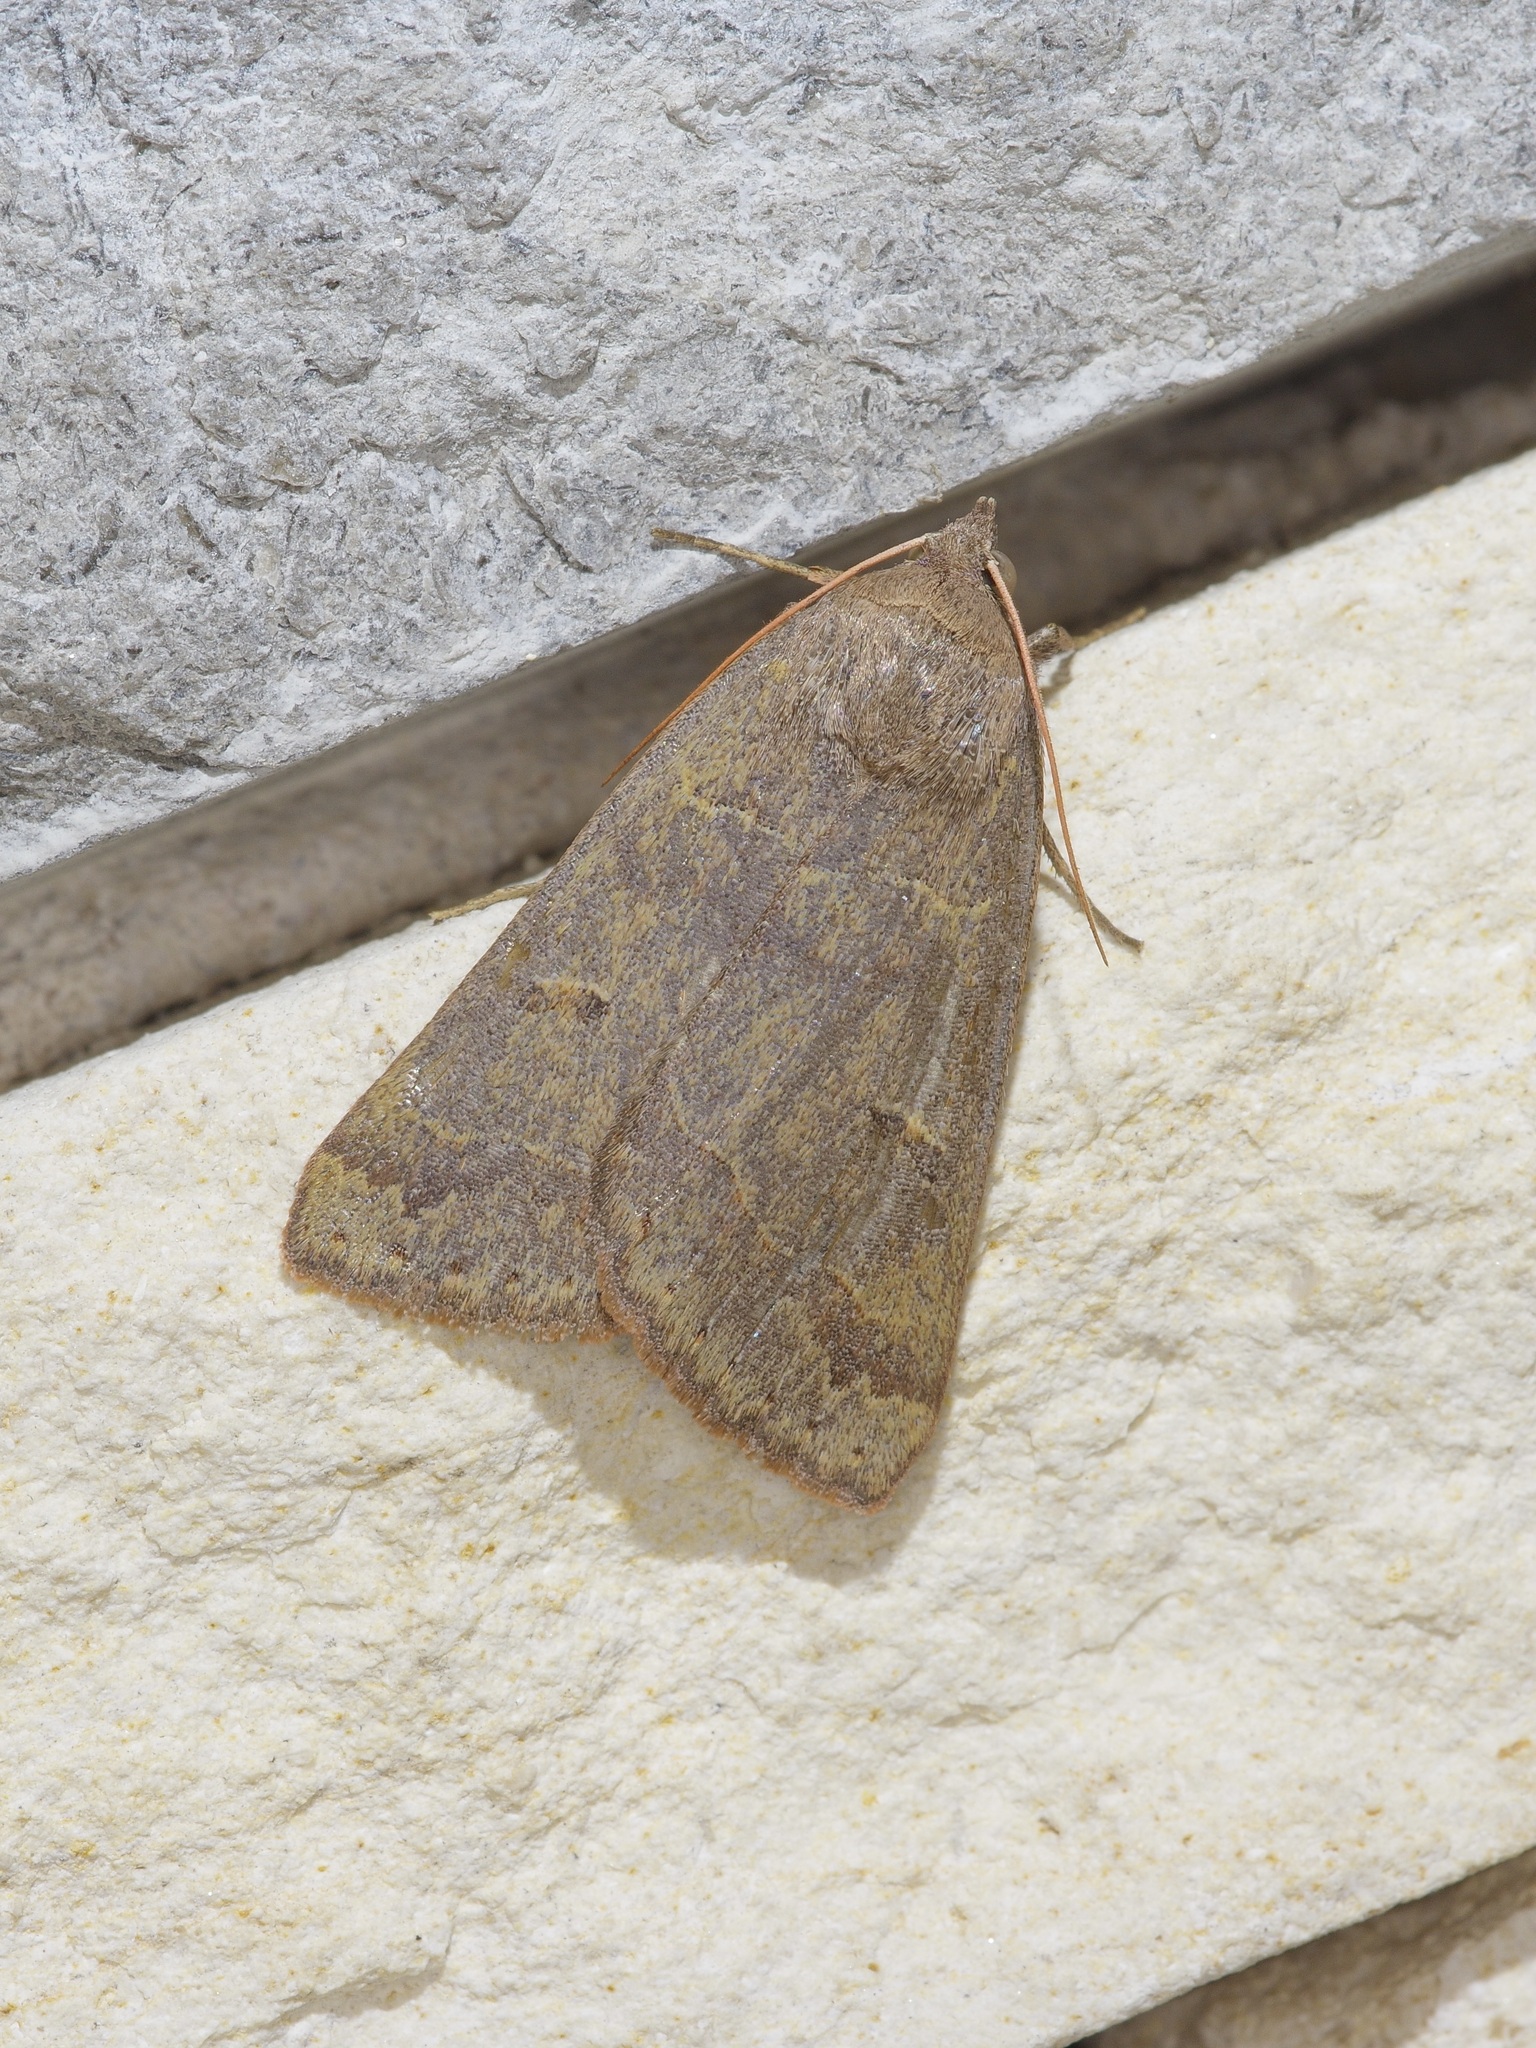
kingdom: Animalia
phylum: Arthropoda
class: Insecta
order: Lepidoptera
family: Erebidae
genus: Phoberia
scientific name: Phoberia atomaris
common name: Common oak moth
